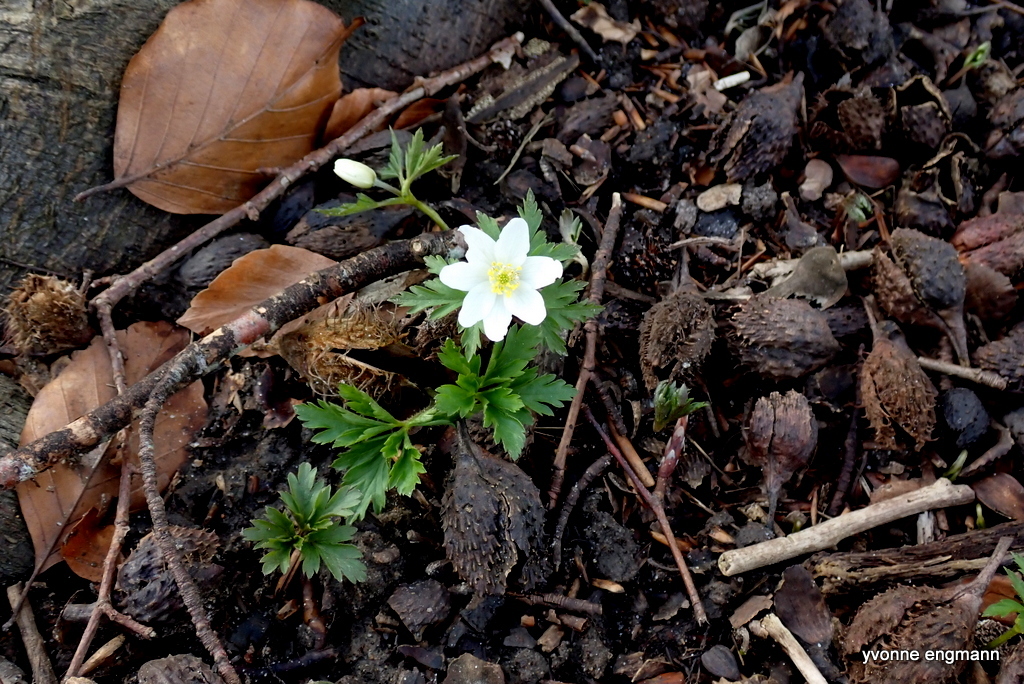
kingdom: Plantae
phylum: Tracheophyta
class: Magnoliopsida
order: Ranunculales
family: Ranunculaceae
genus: Anemone
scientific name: Anemone nemorosa
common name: Wood anemone
